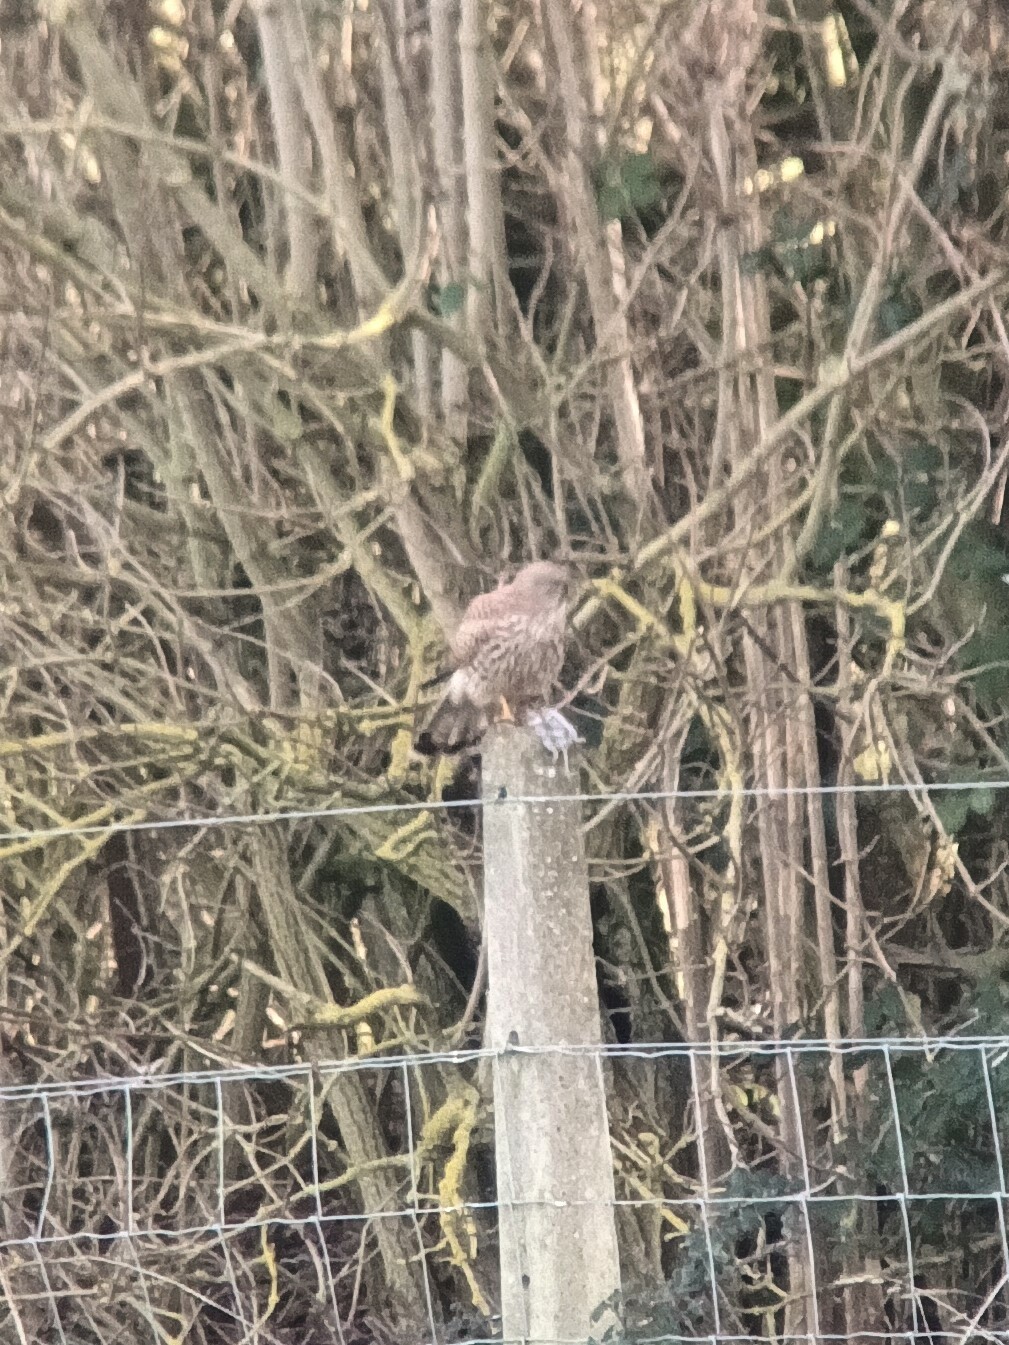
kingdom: Animalia
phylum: Chordata
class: Aves
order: Falconiformes
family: Falconidae
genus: Falco
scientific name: Falco tinnunculus
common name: Common kestrel
